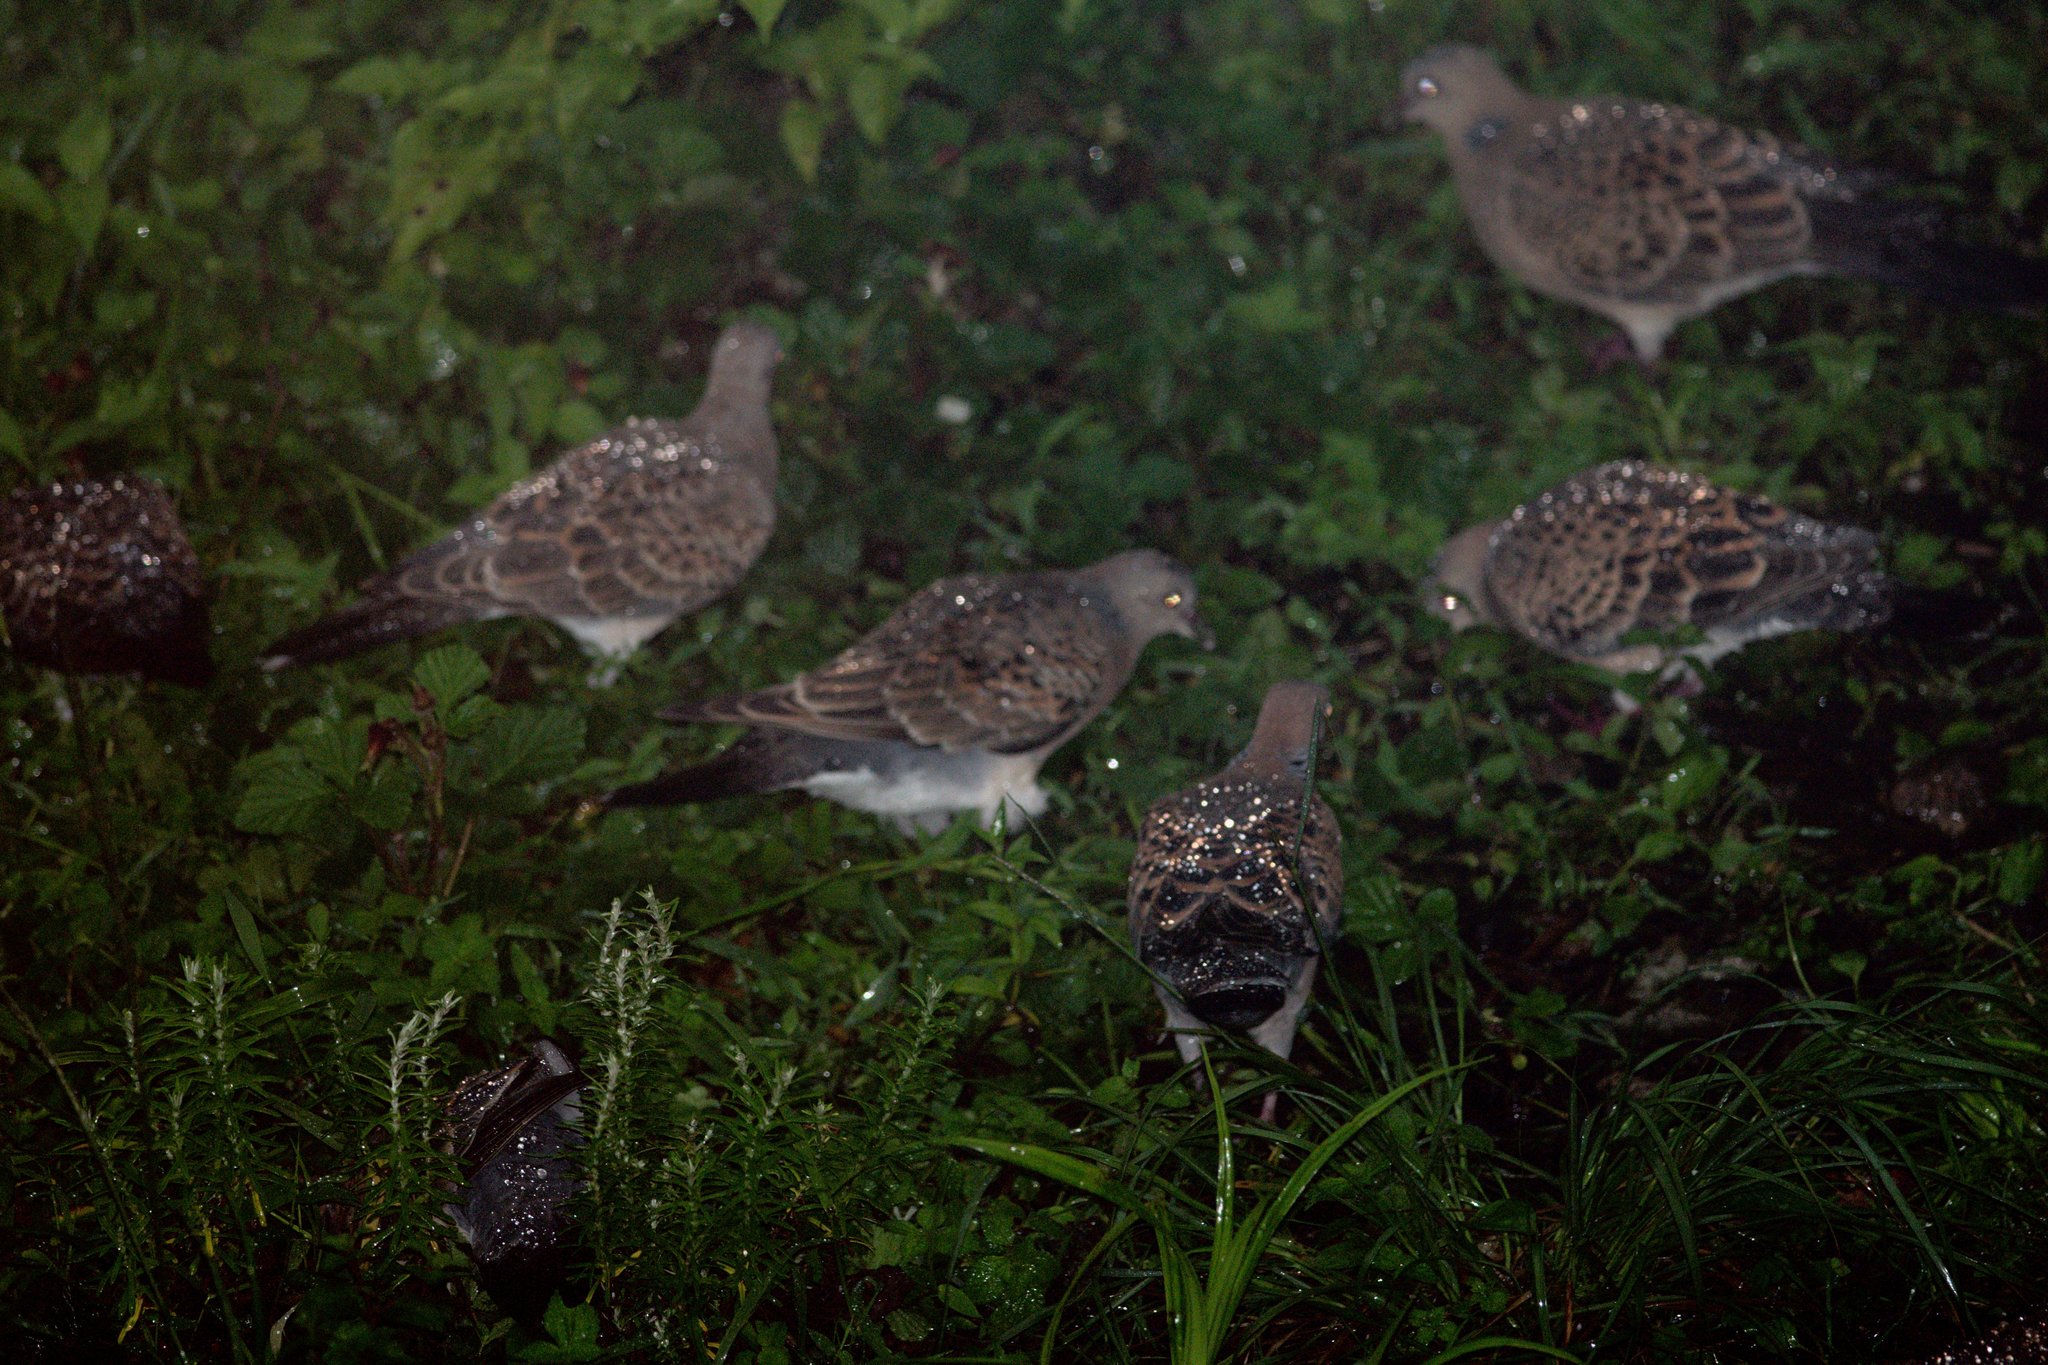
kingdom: Animalia
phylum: Chordata
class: Aves
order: Columbiformes
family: Columbidae
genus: Streptopelia
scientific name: Streptopelia orientalis
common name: Oriental turtle dove
